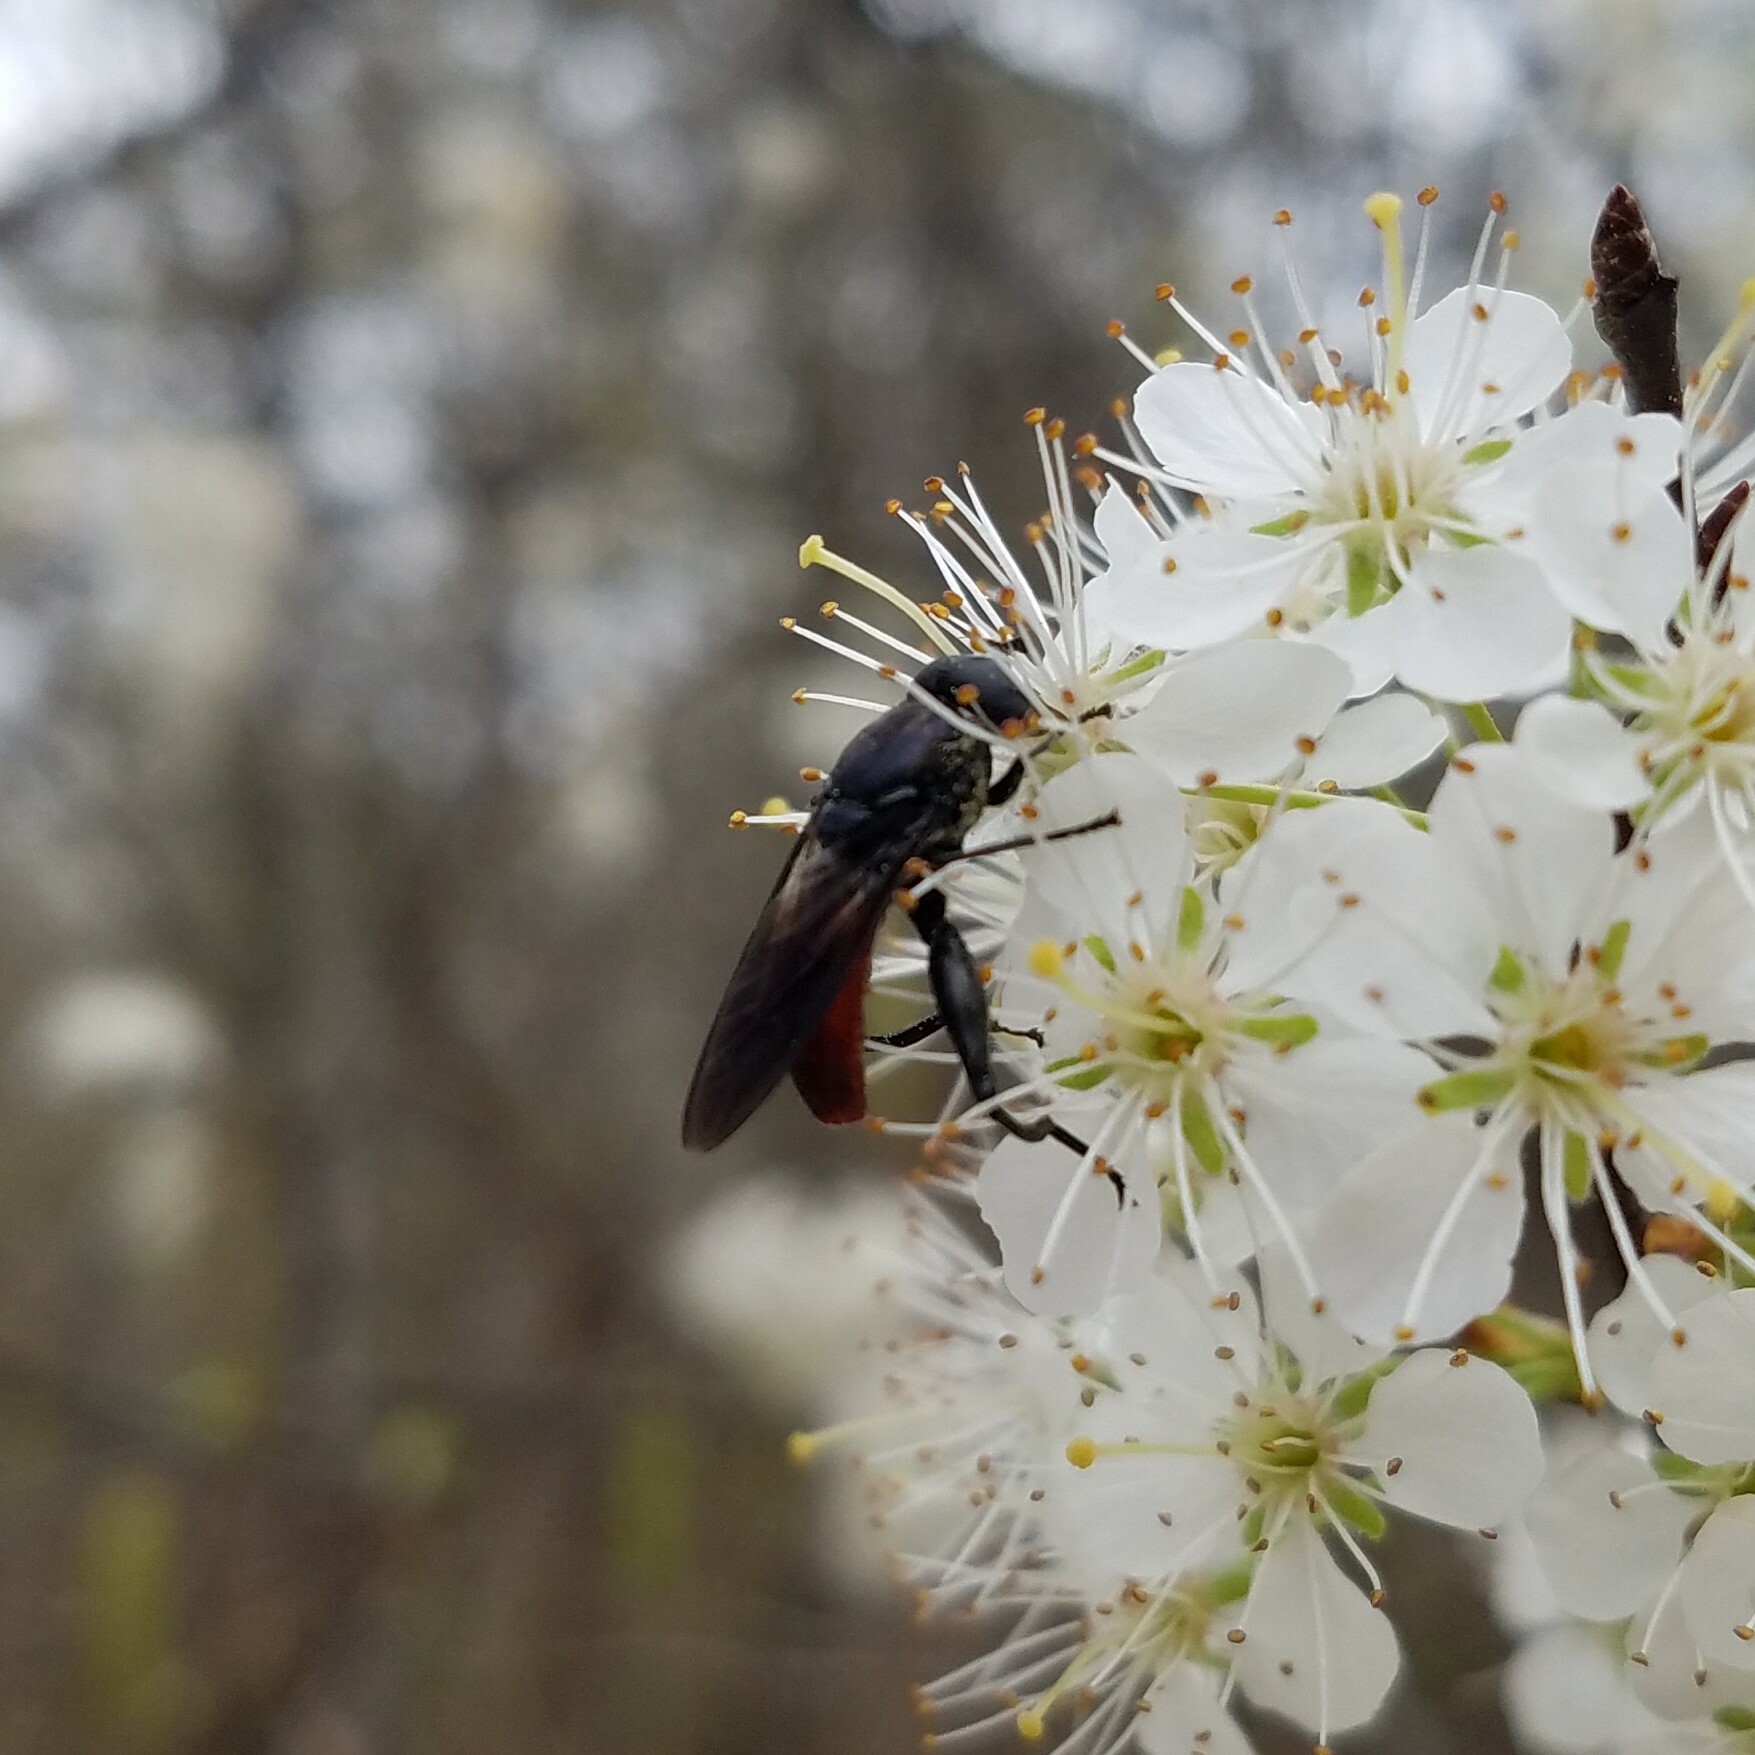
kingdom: Animalia
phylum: Arthropoda
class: Insecta
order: Diptera
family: Syrphidae
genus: Chalcosyrphus
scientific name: Chalcosyrphus piger
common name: Short-haired leafwalker
